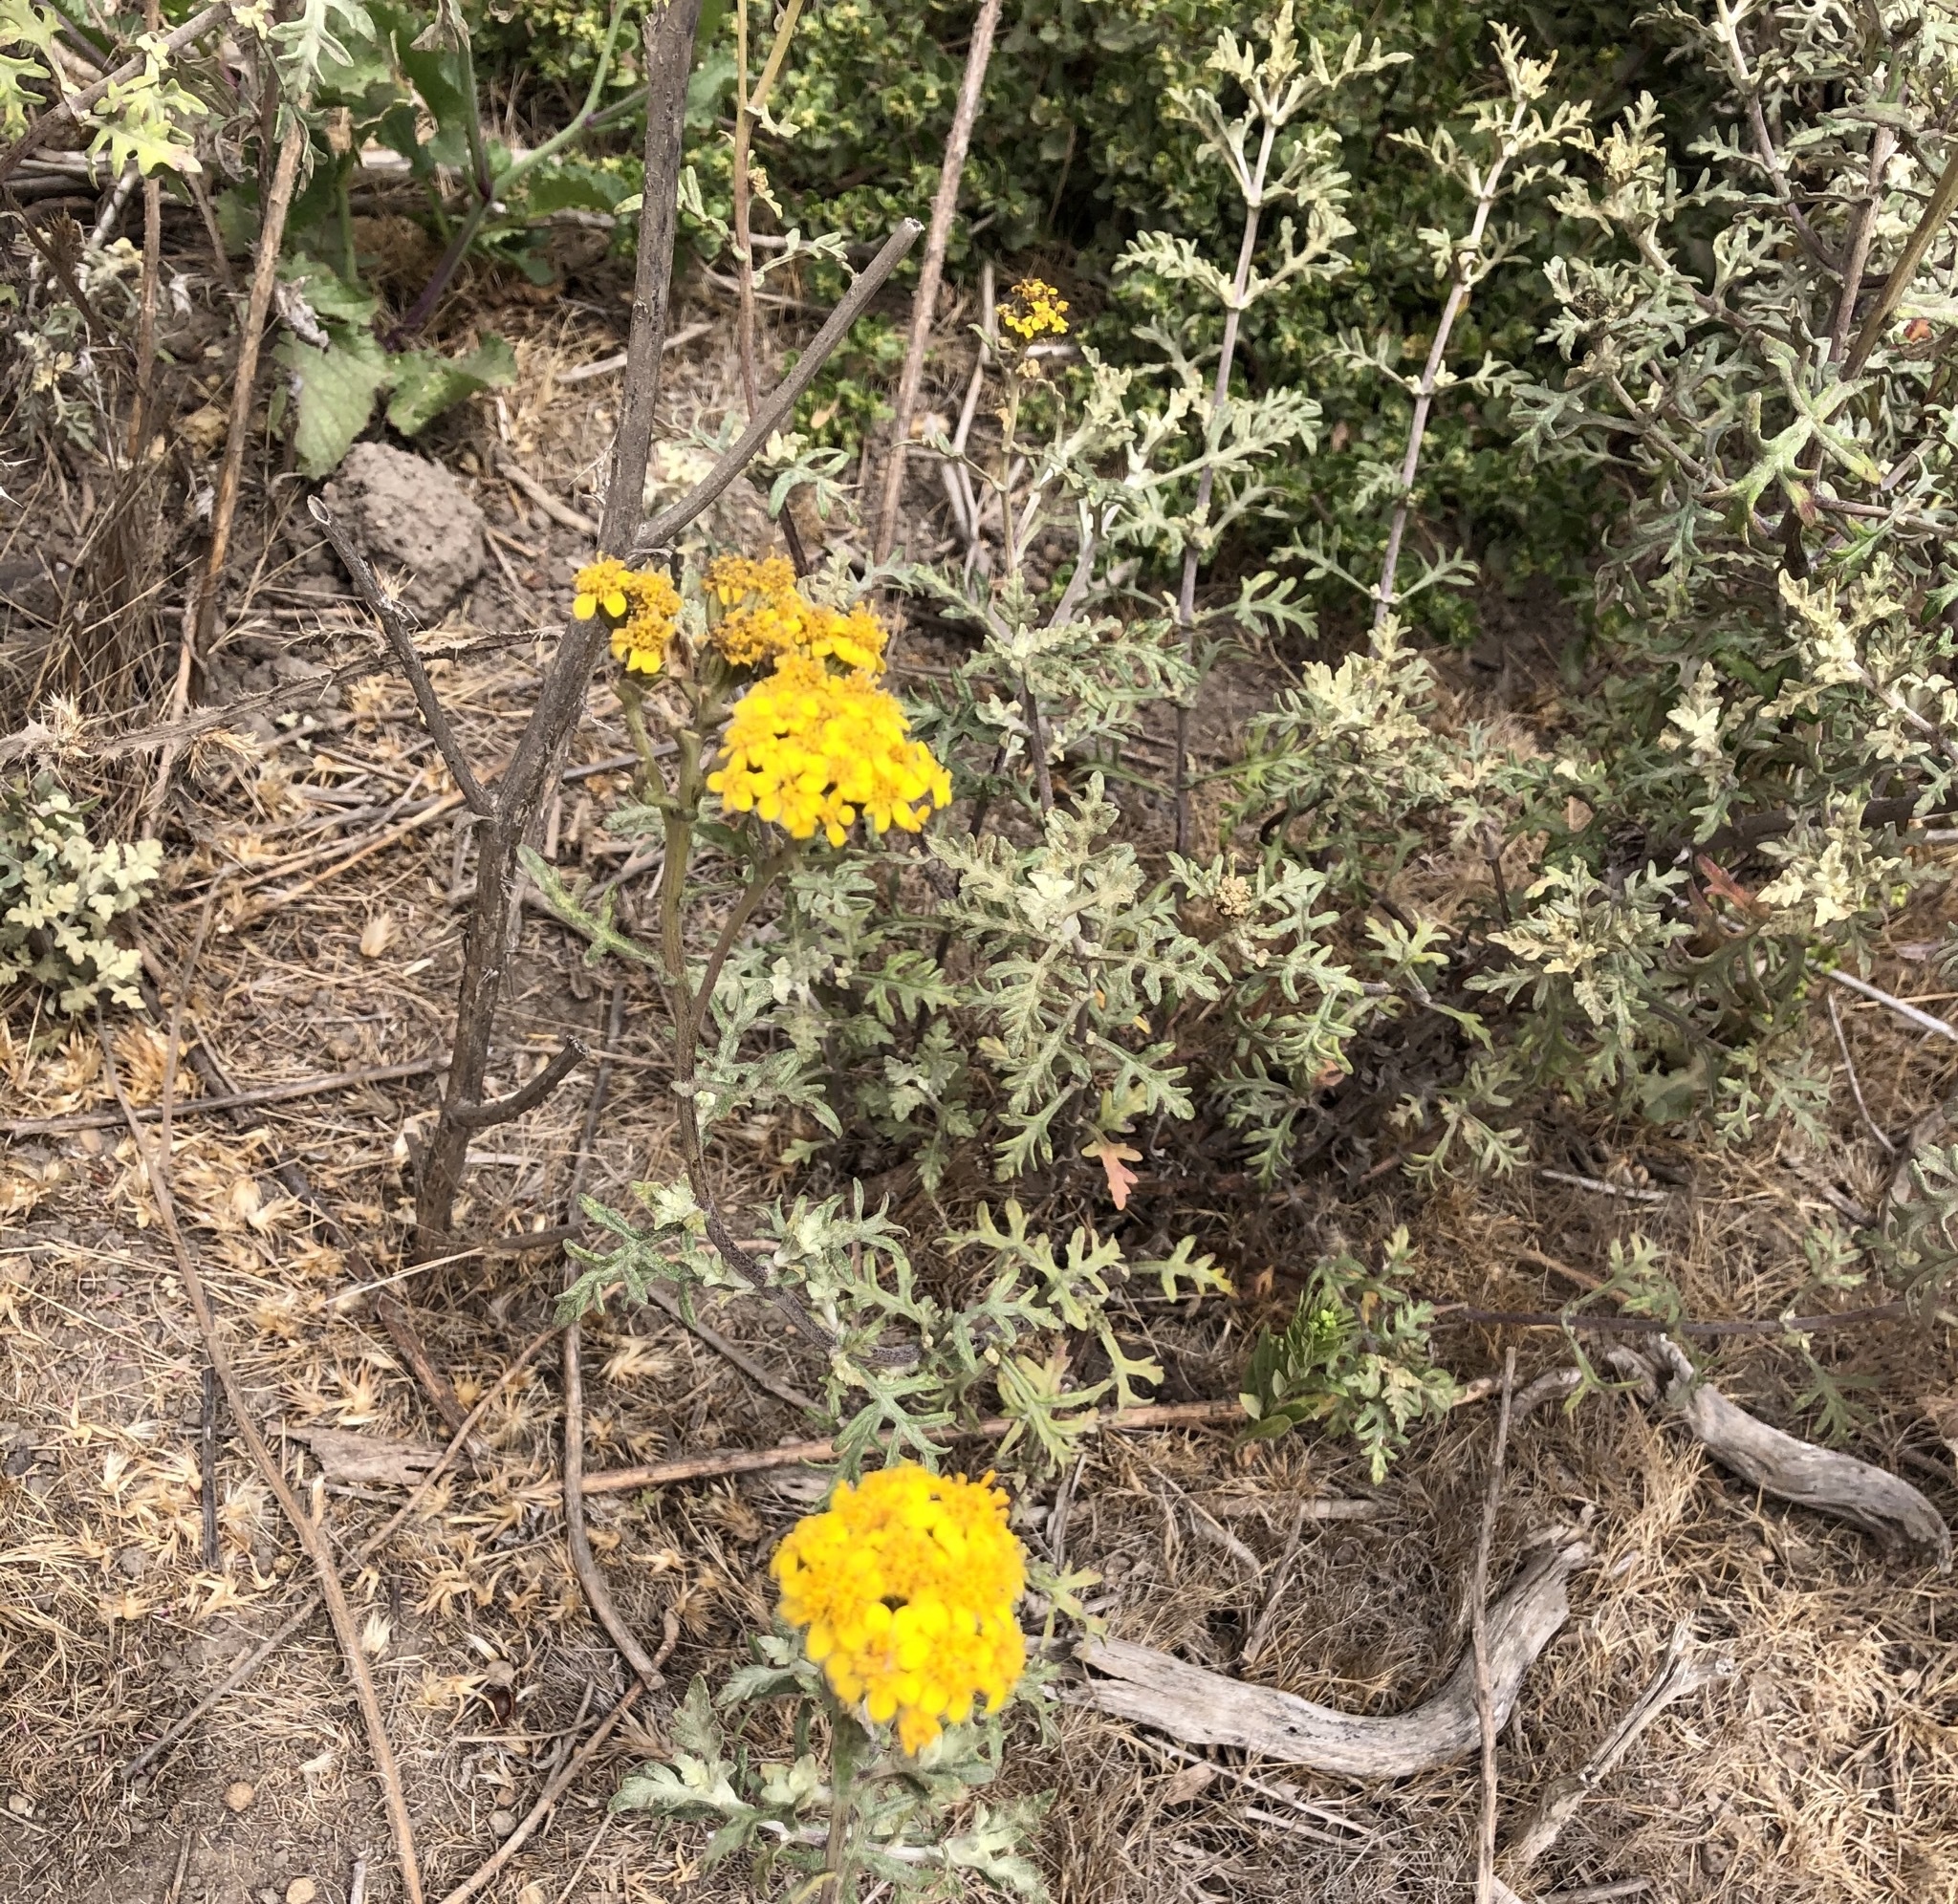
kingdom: Plantae
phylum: Tracheophyta
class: Magnoliopsida
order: Asterales
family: Asteraceae
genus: Eriophyllum
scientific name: Eriophyllum staechadifolium
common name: Lizardtail
